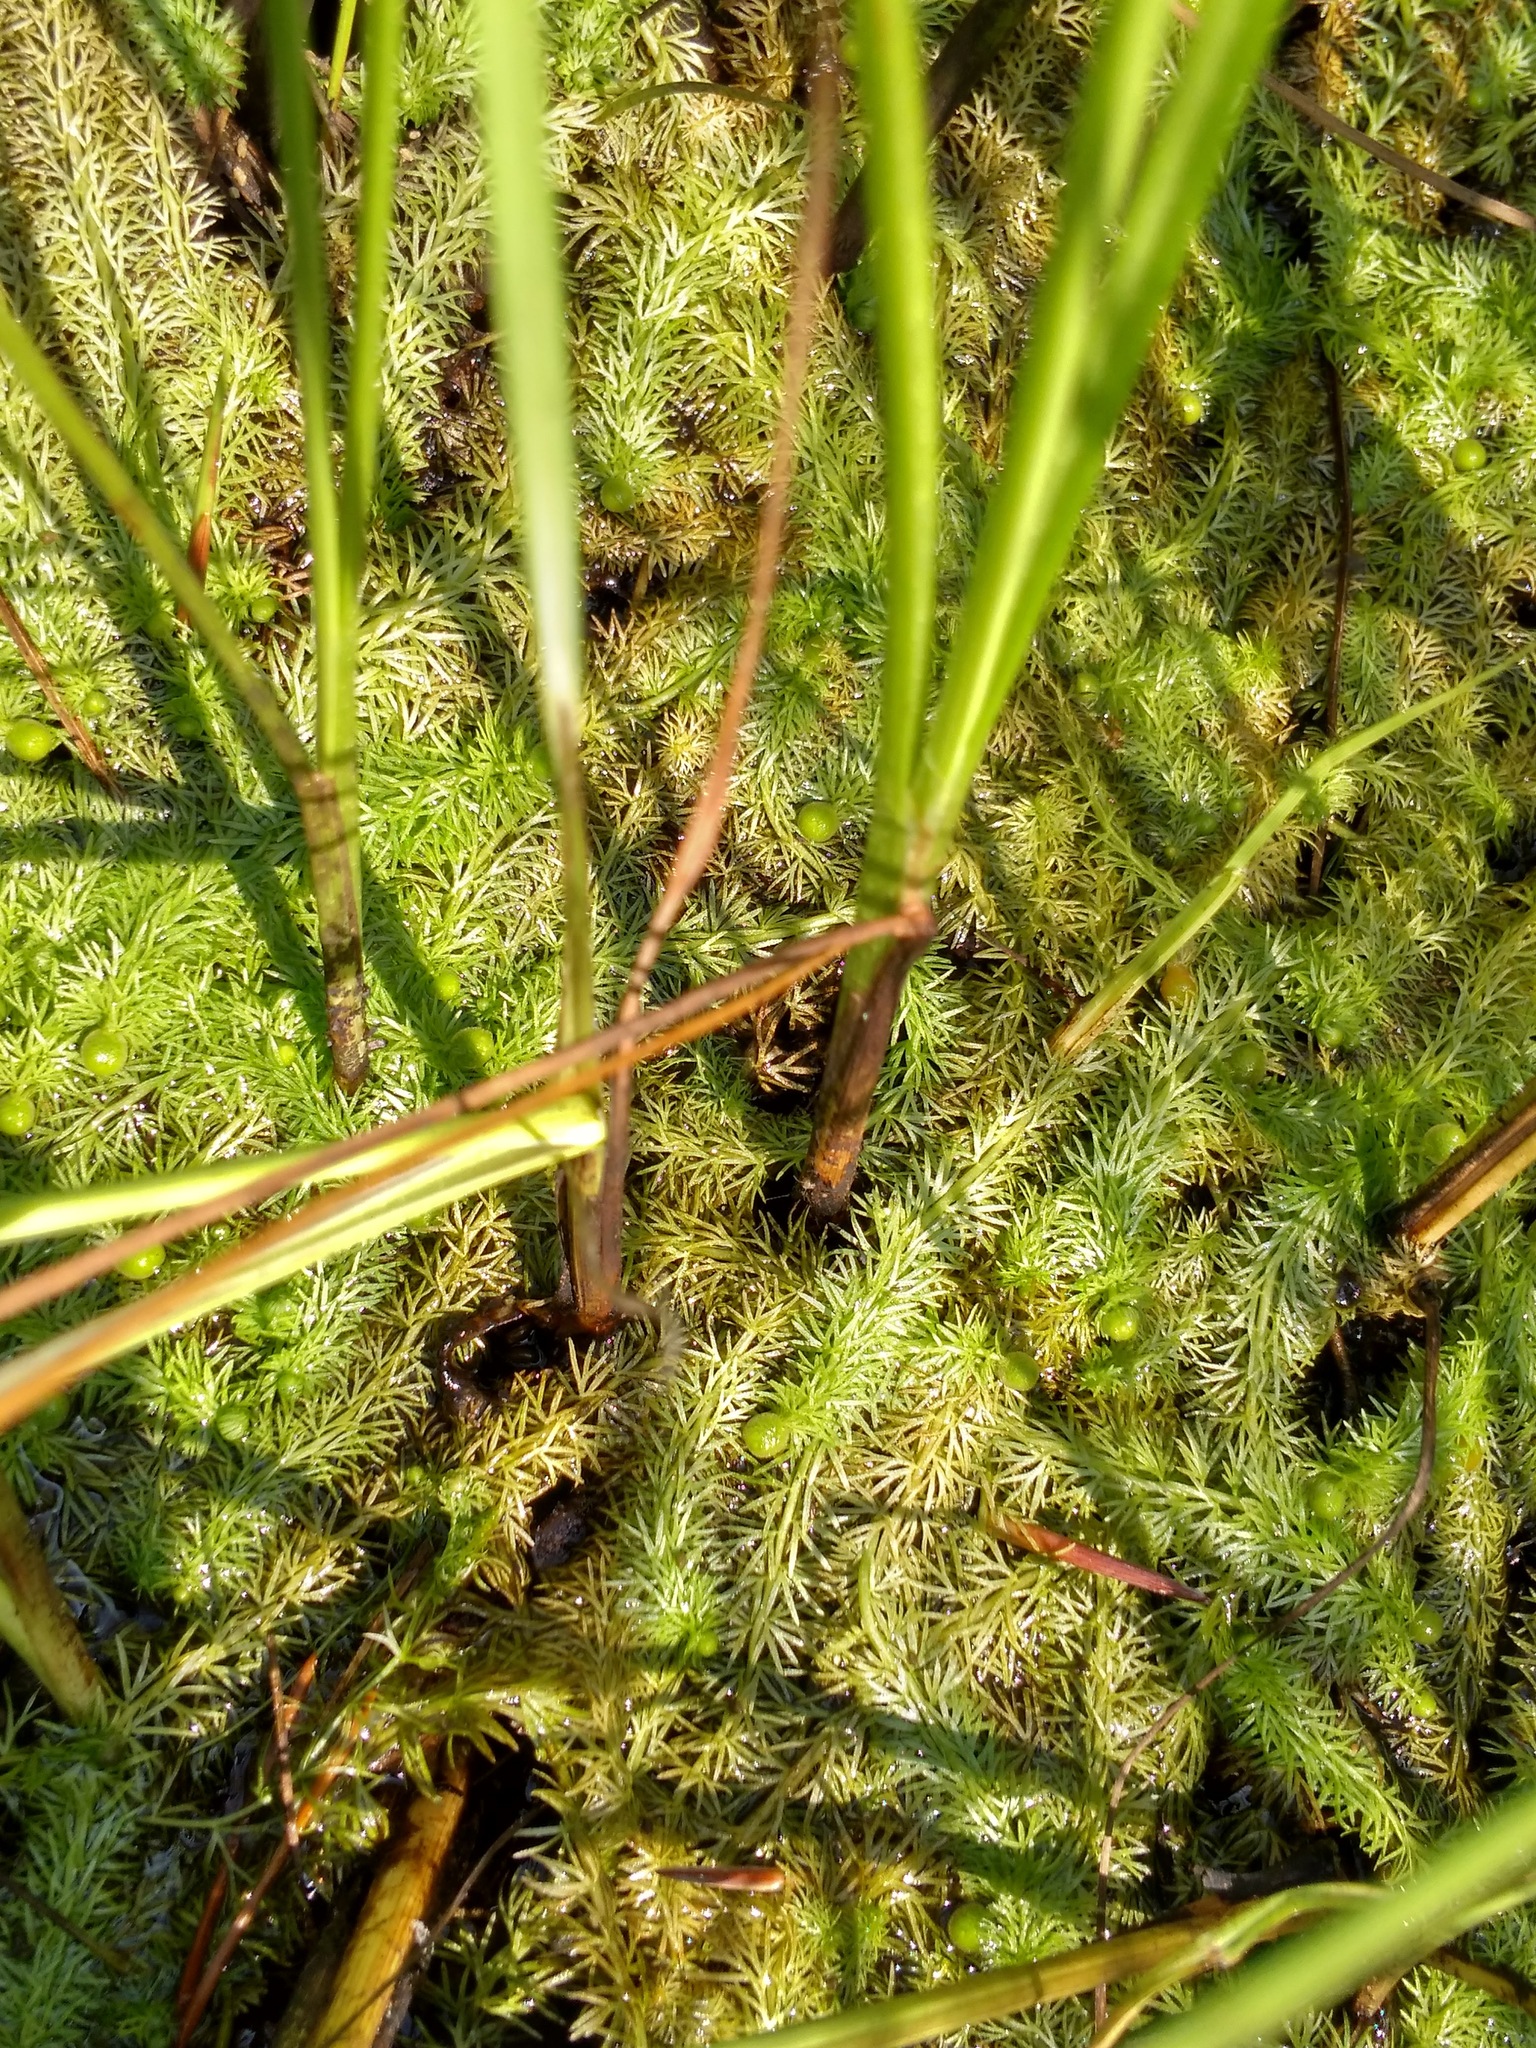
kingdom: Plantae
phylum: Tracheophyta
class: Magnoliopsida
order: Lamiales
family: Lentibulariaceae
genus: Utricularia
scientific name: Utricularia intermedia
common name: Intermediate bladderwort
